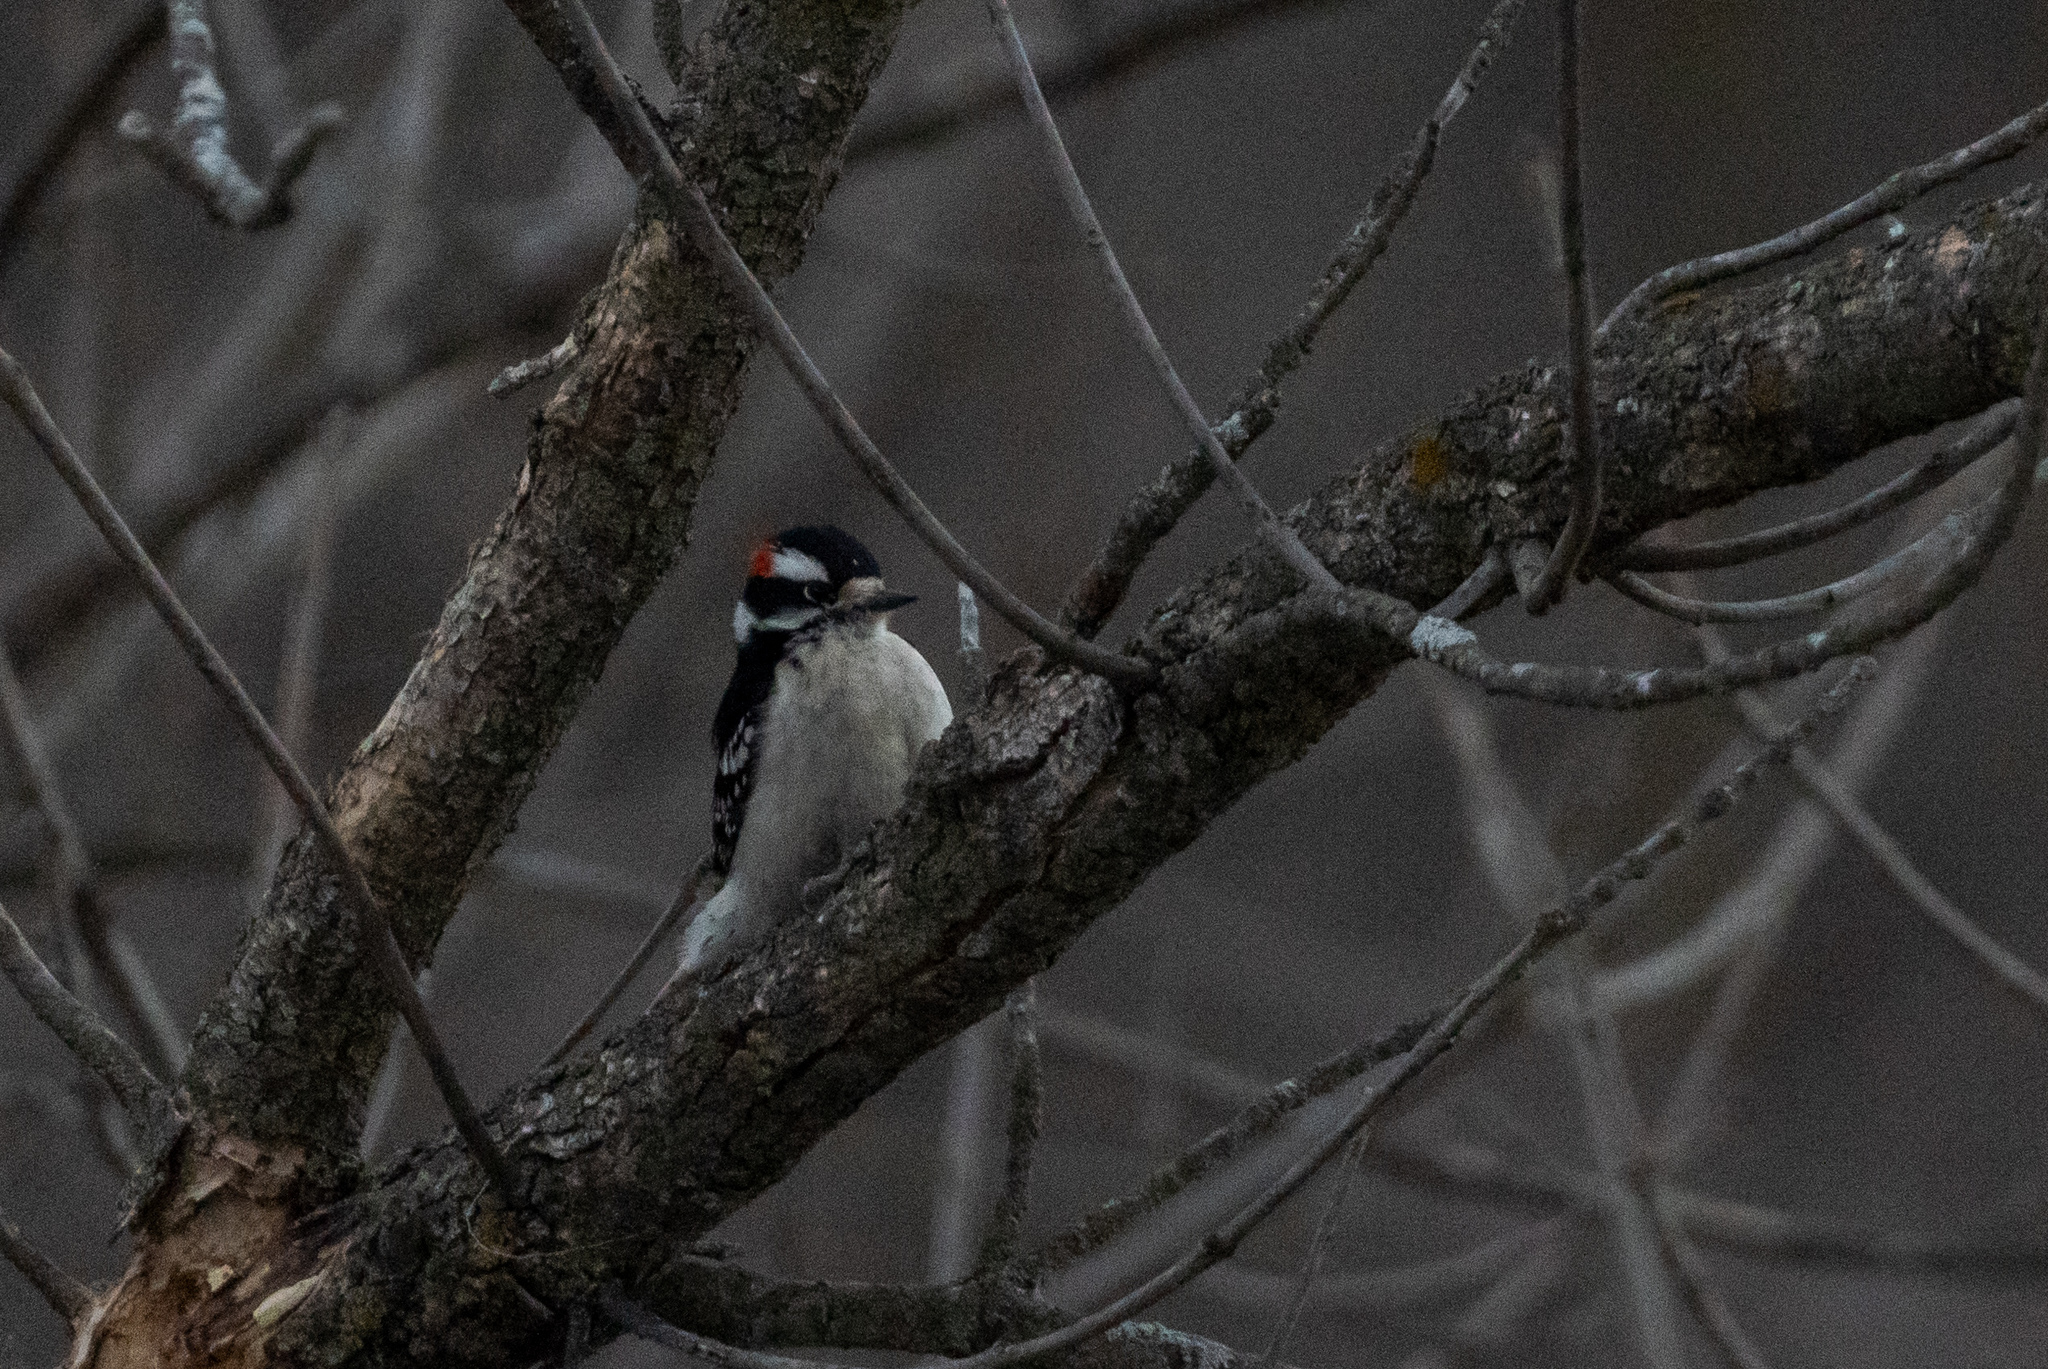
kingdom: Animalia
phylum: Chordata
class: Aves
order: Piciformes
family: Picidae
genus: Dryobates
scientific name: Dryobates pubescens
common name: Downy woodpecker
